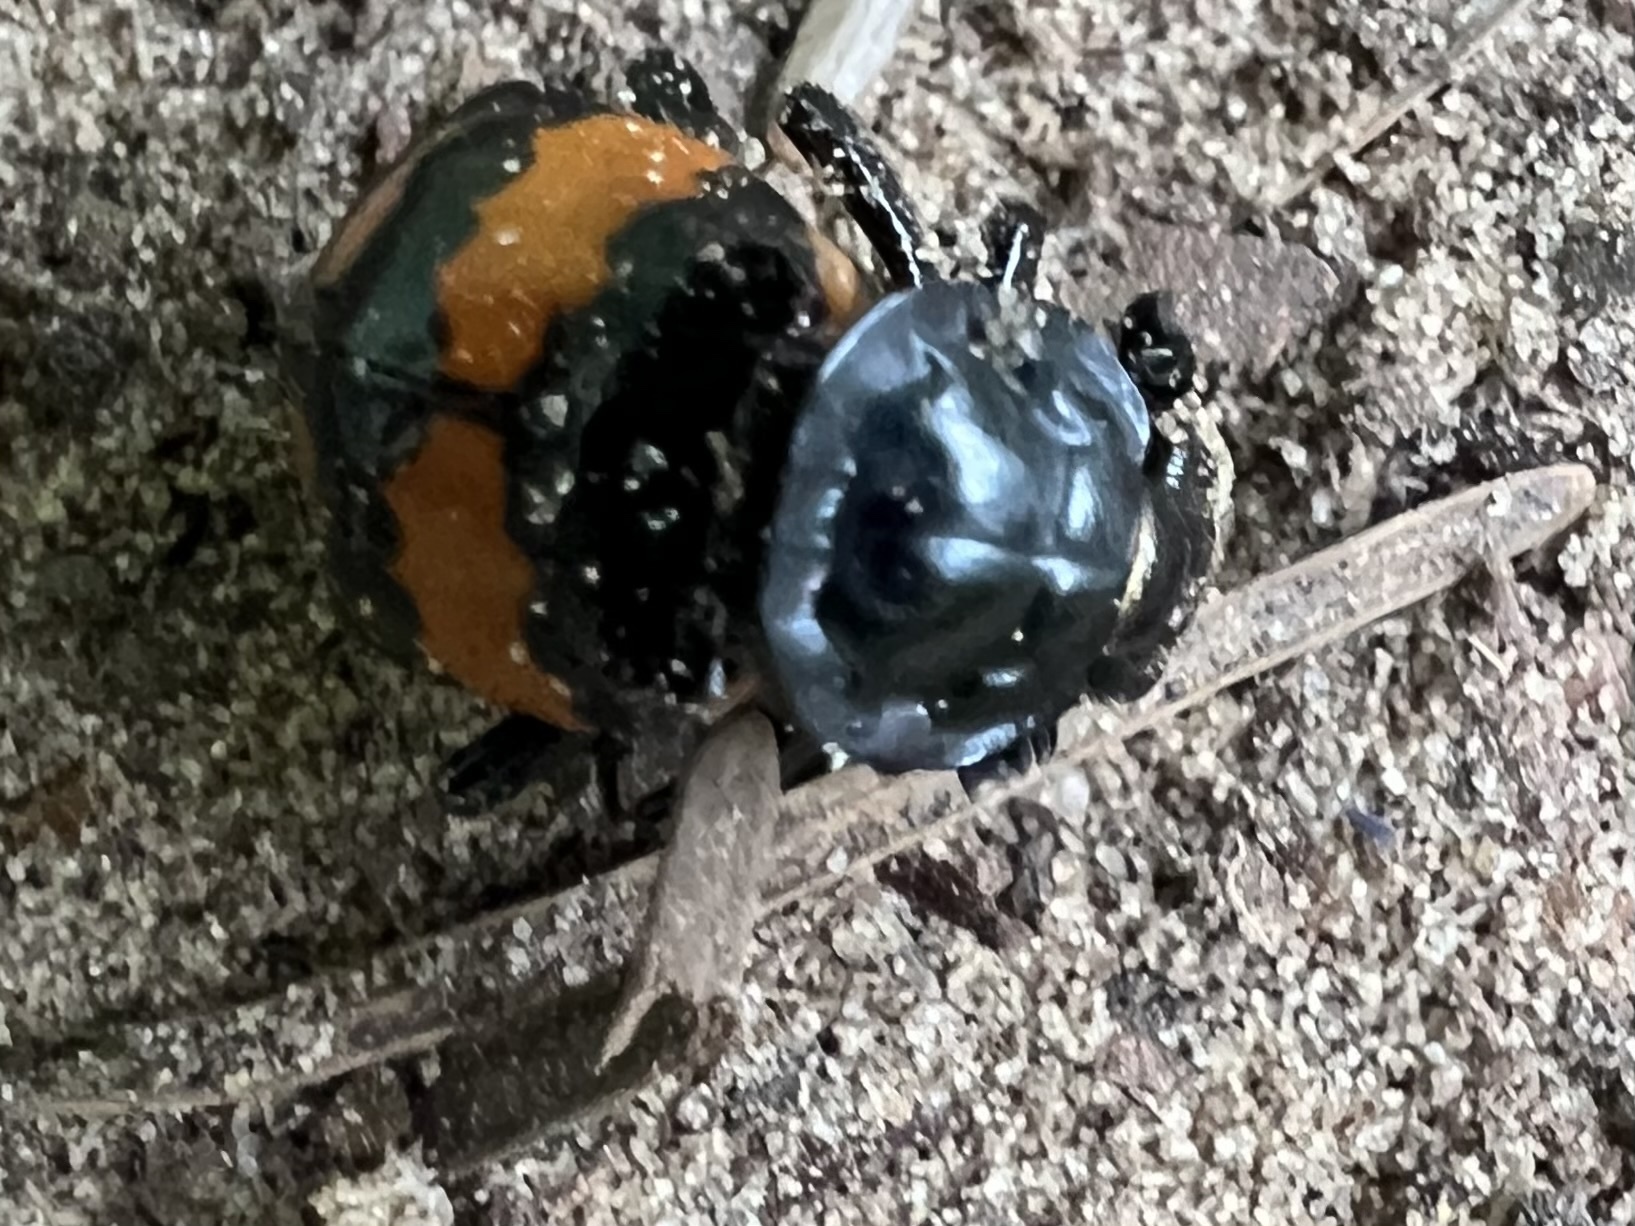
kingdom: Animalia
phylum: Arthropoda
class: Insecta
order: Coleoptera
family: Staphylinidae
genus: Nicrophorus
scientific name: Nicrophorus vespilloides
